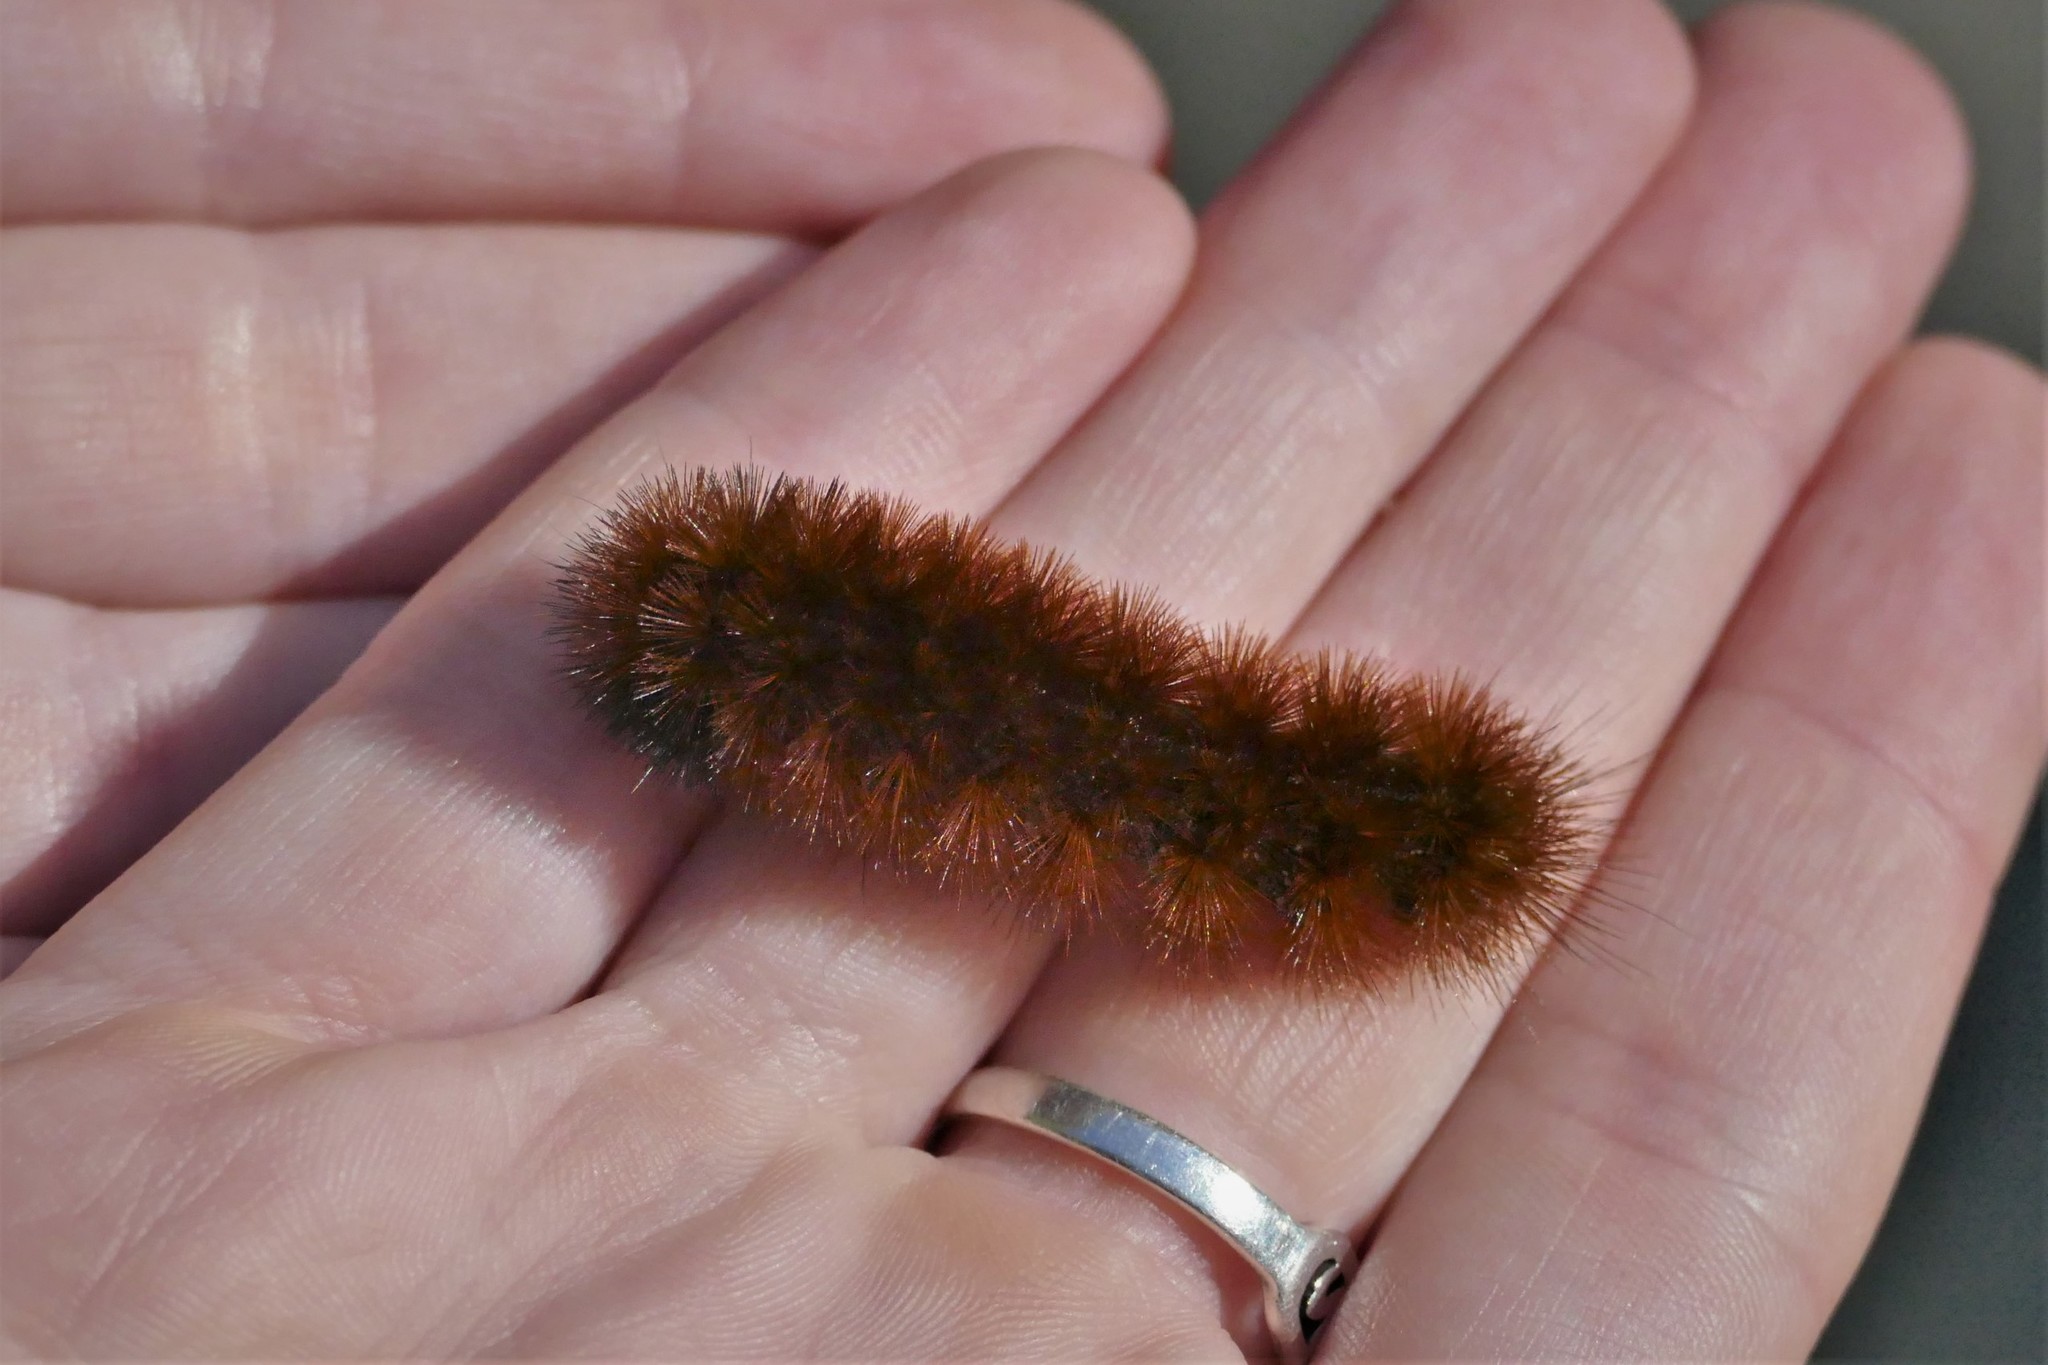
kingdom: Animalia
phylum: Arthropoda
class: Insecta
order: Lepidoptera
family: Erebidae
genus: Pyrrharctia
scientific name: Pyrrharctia isabella
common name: Isabella tiger moth
